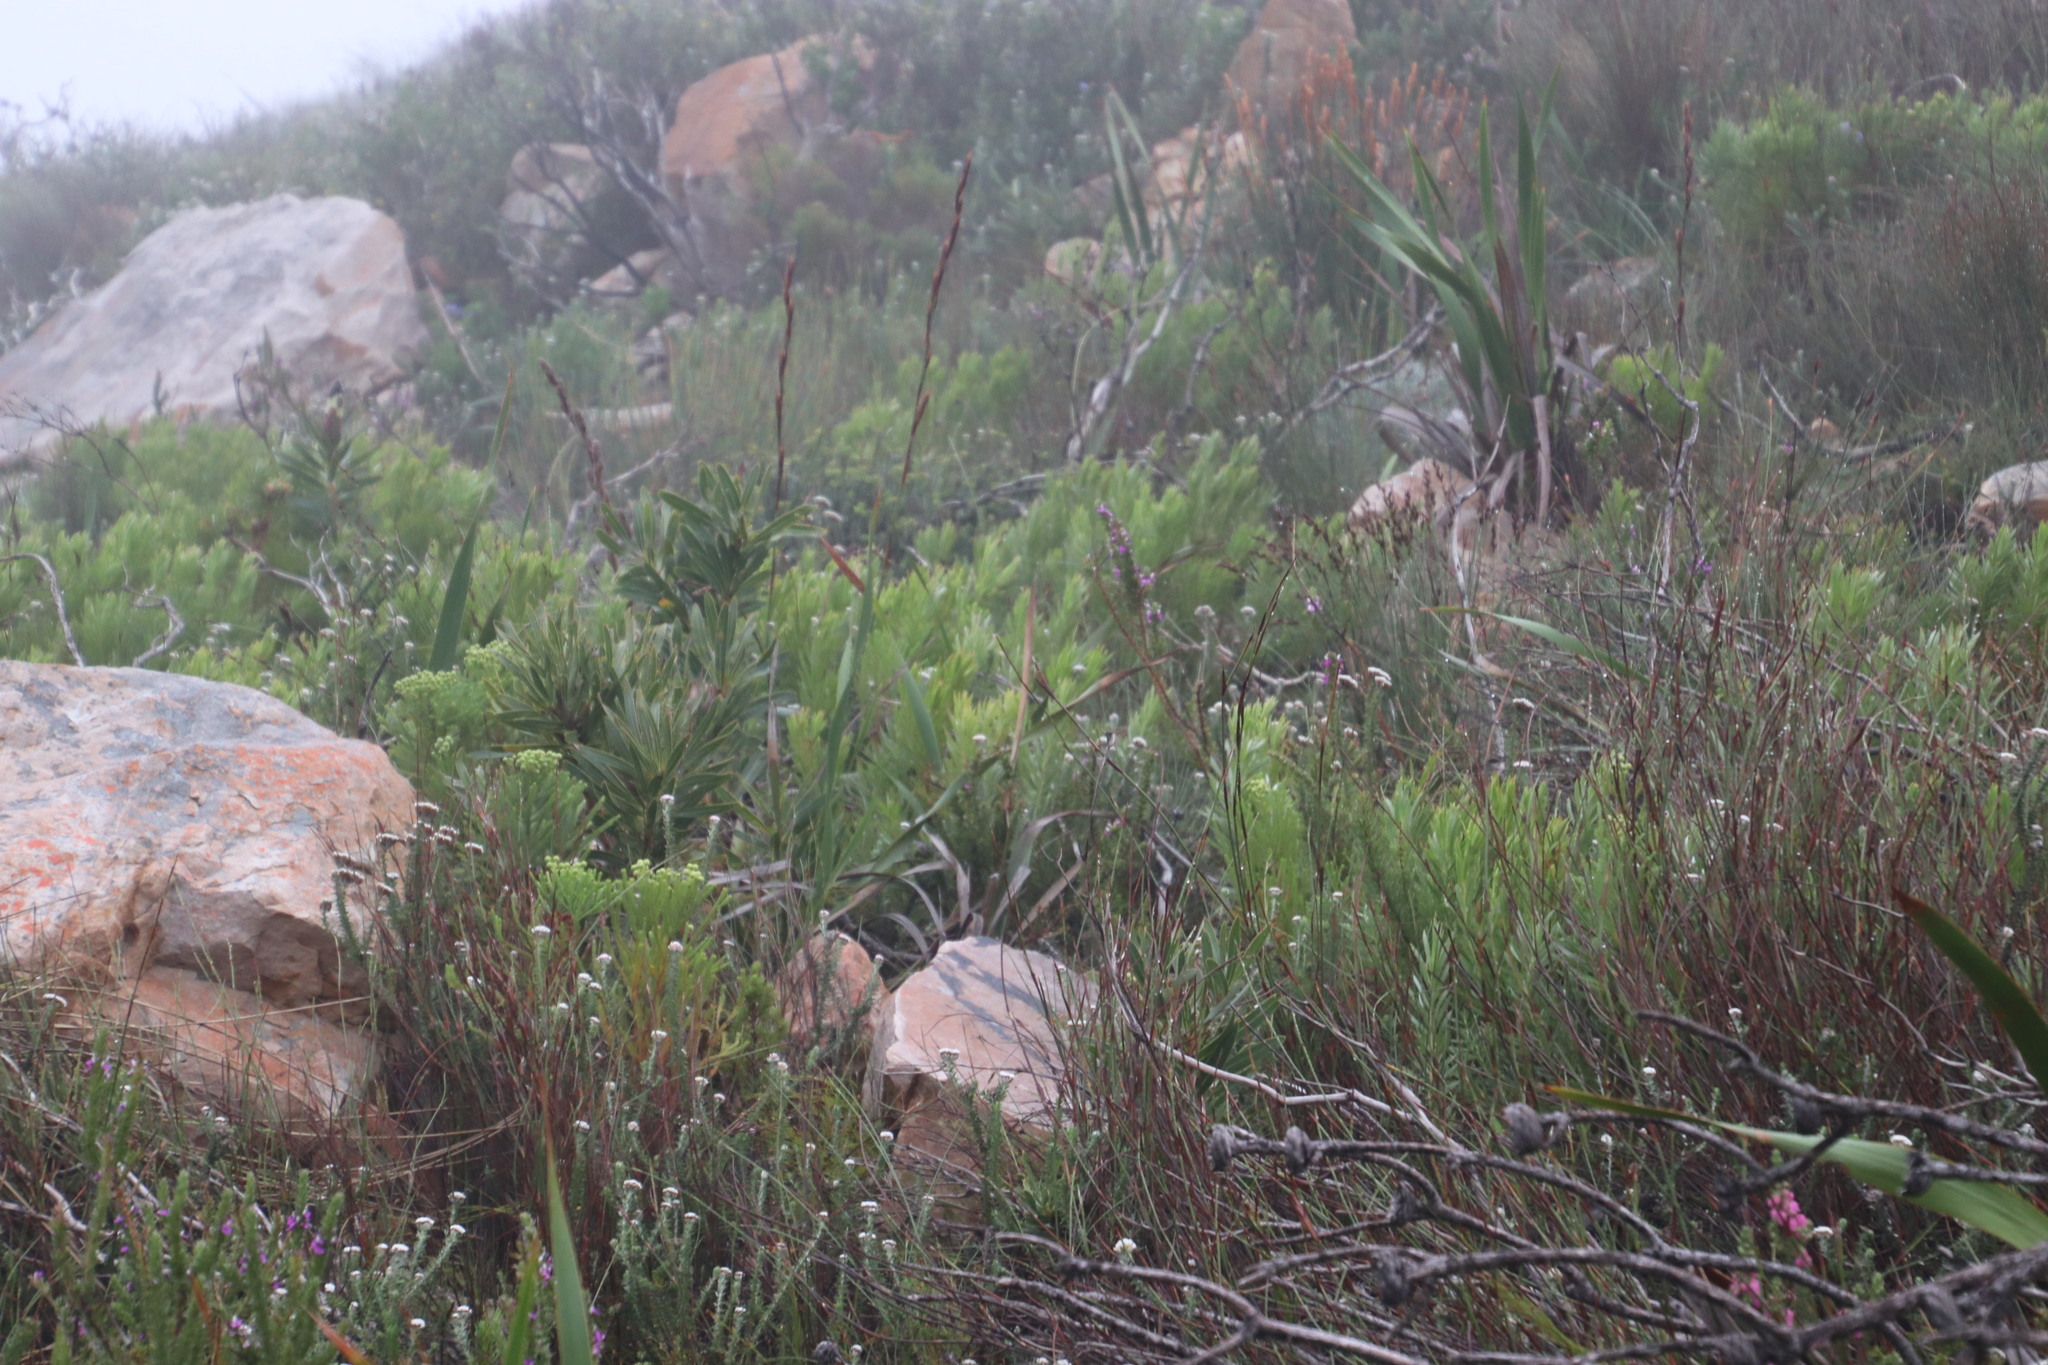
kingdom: Plantae
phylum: Tracheophyta
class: Magnoliopsida
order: Proteales
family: Proteaceae
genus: Leucadendron
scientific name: Leucadendron xanthoconus
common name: Sickle-leaf conebush
